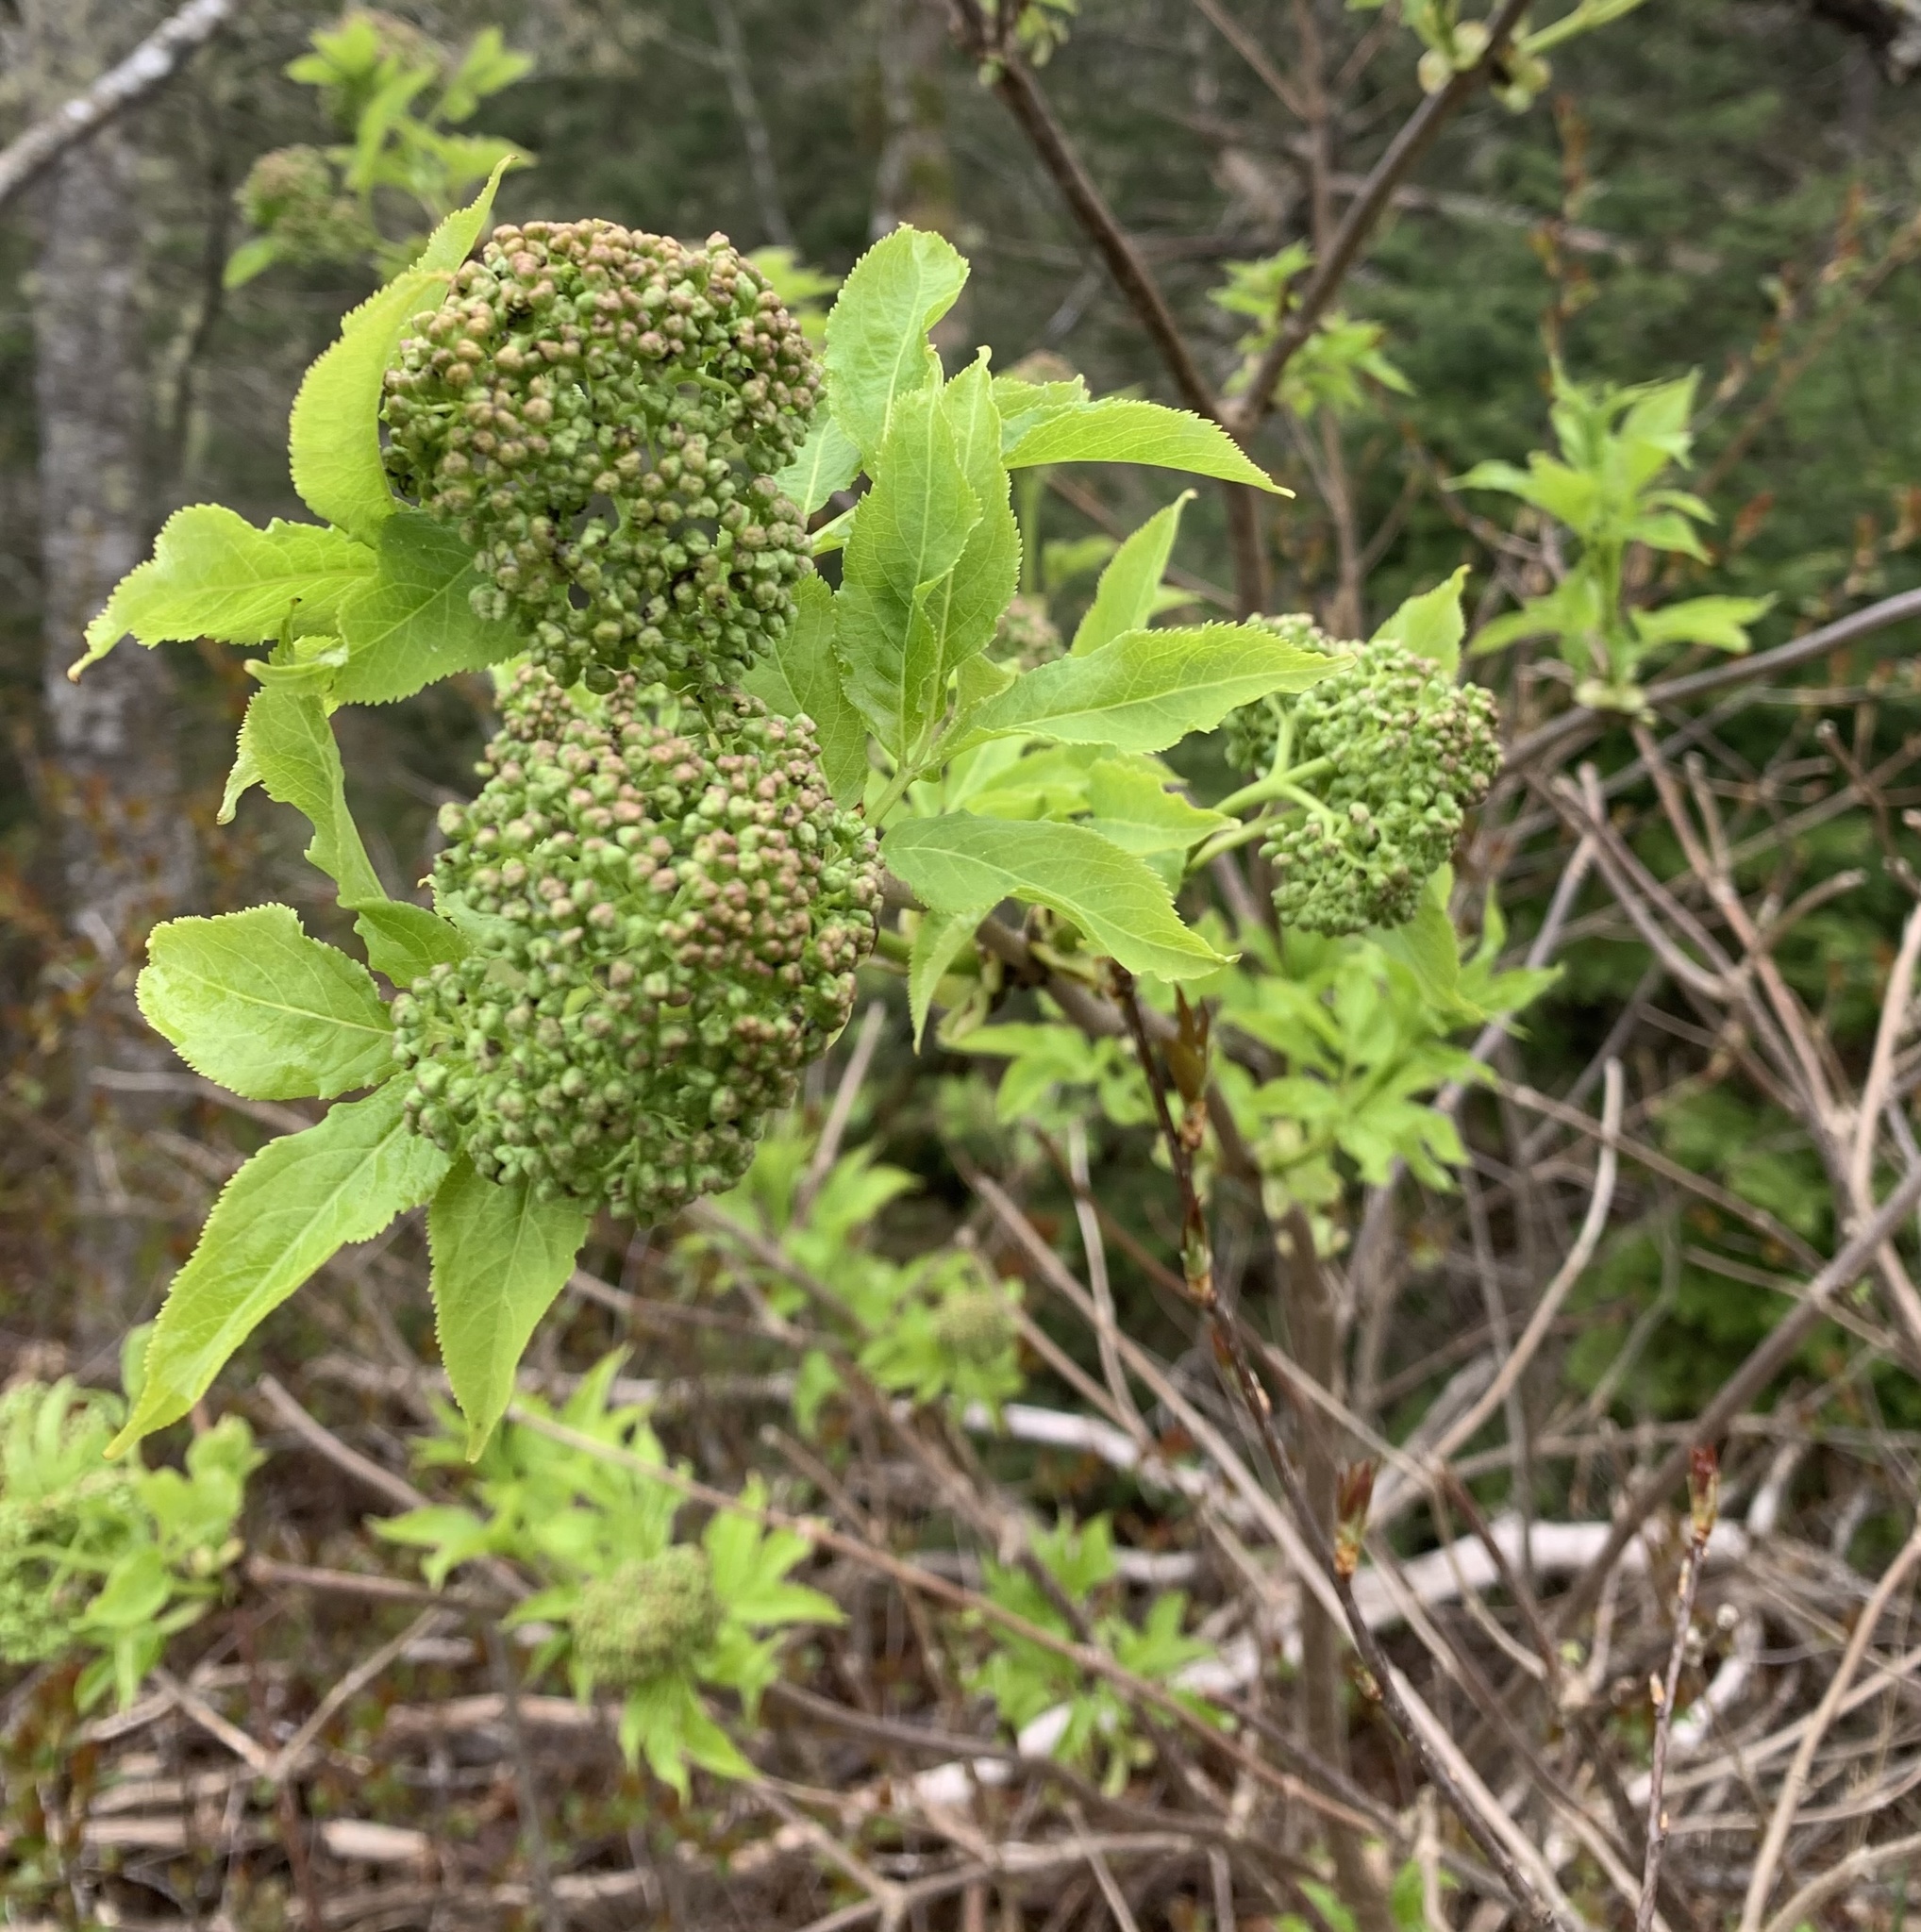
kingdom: Plantae
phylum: Tracheophyta
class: Magnoliopsida
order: Dipsacales
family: Viburnaceae
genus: Sambucus
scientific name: Sambucus racemosa
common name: Red-berried elder
